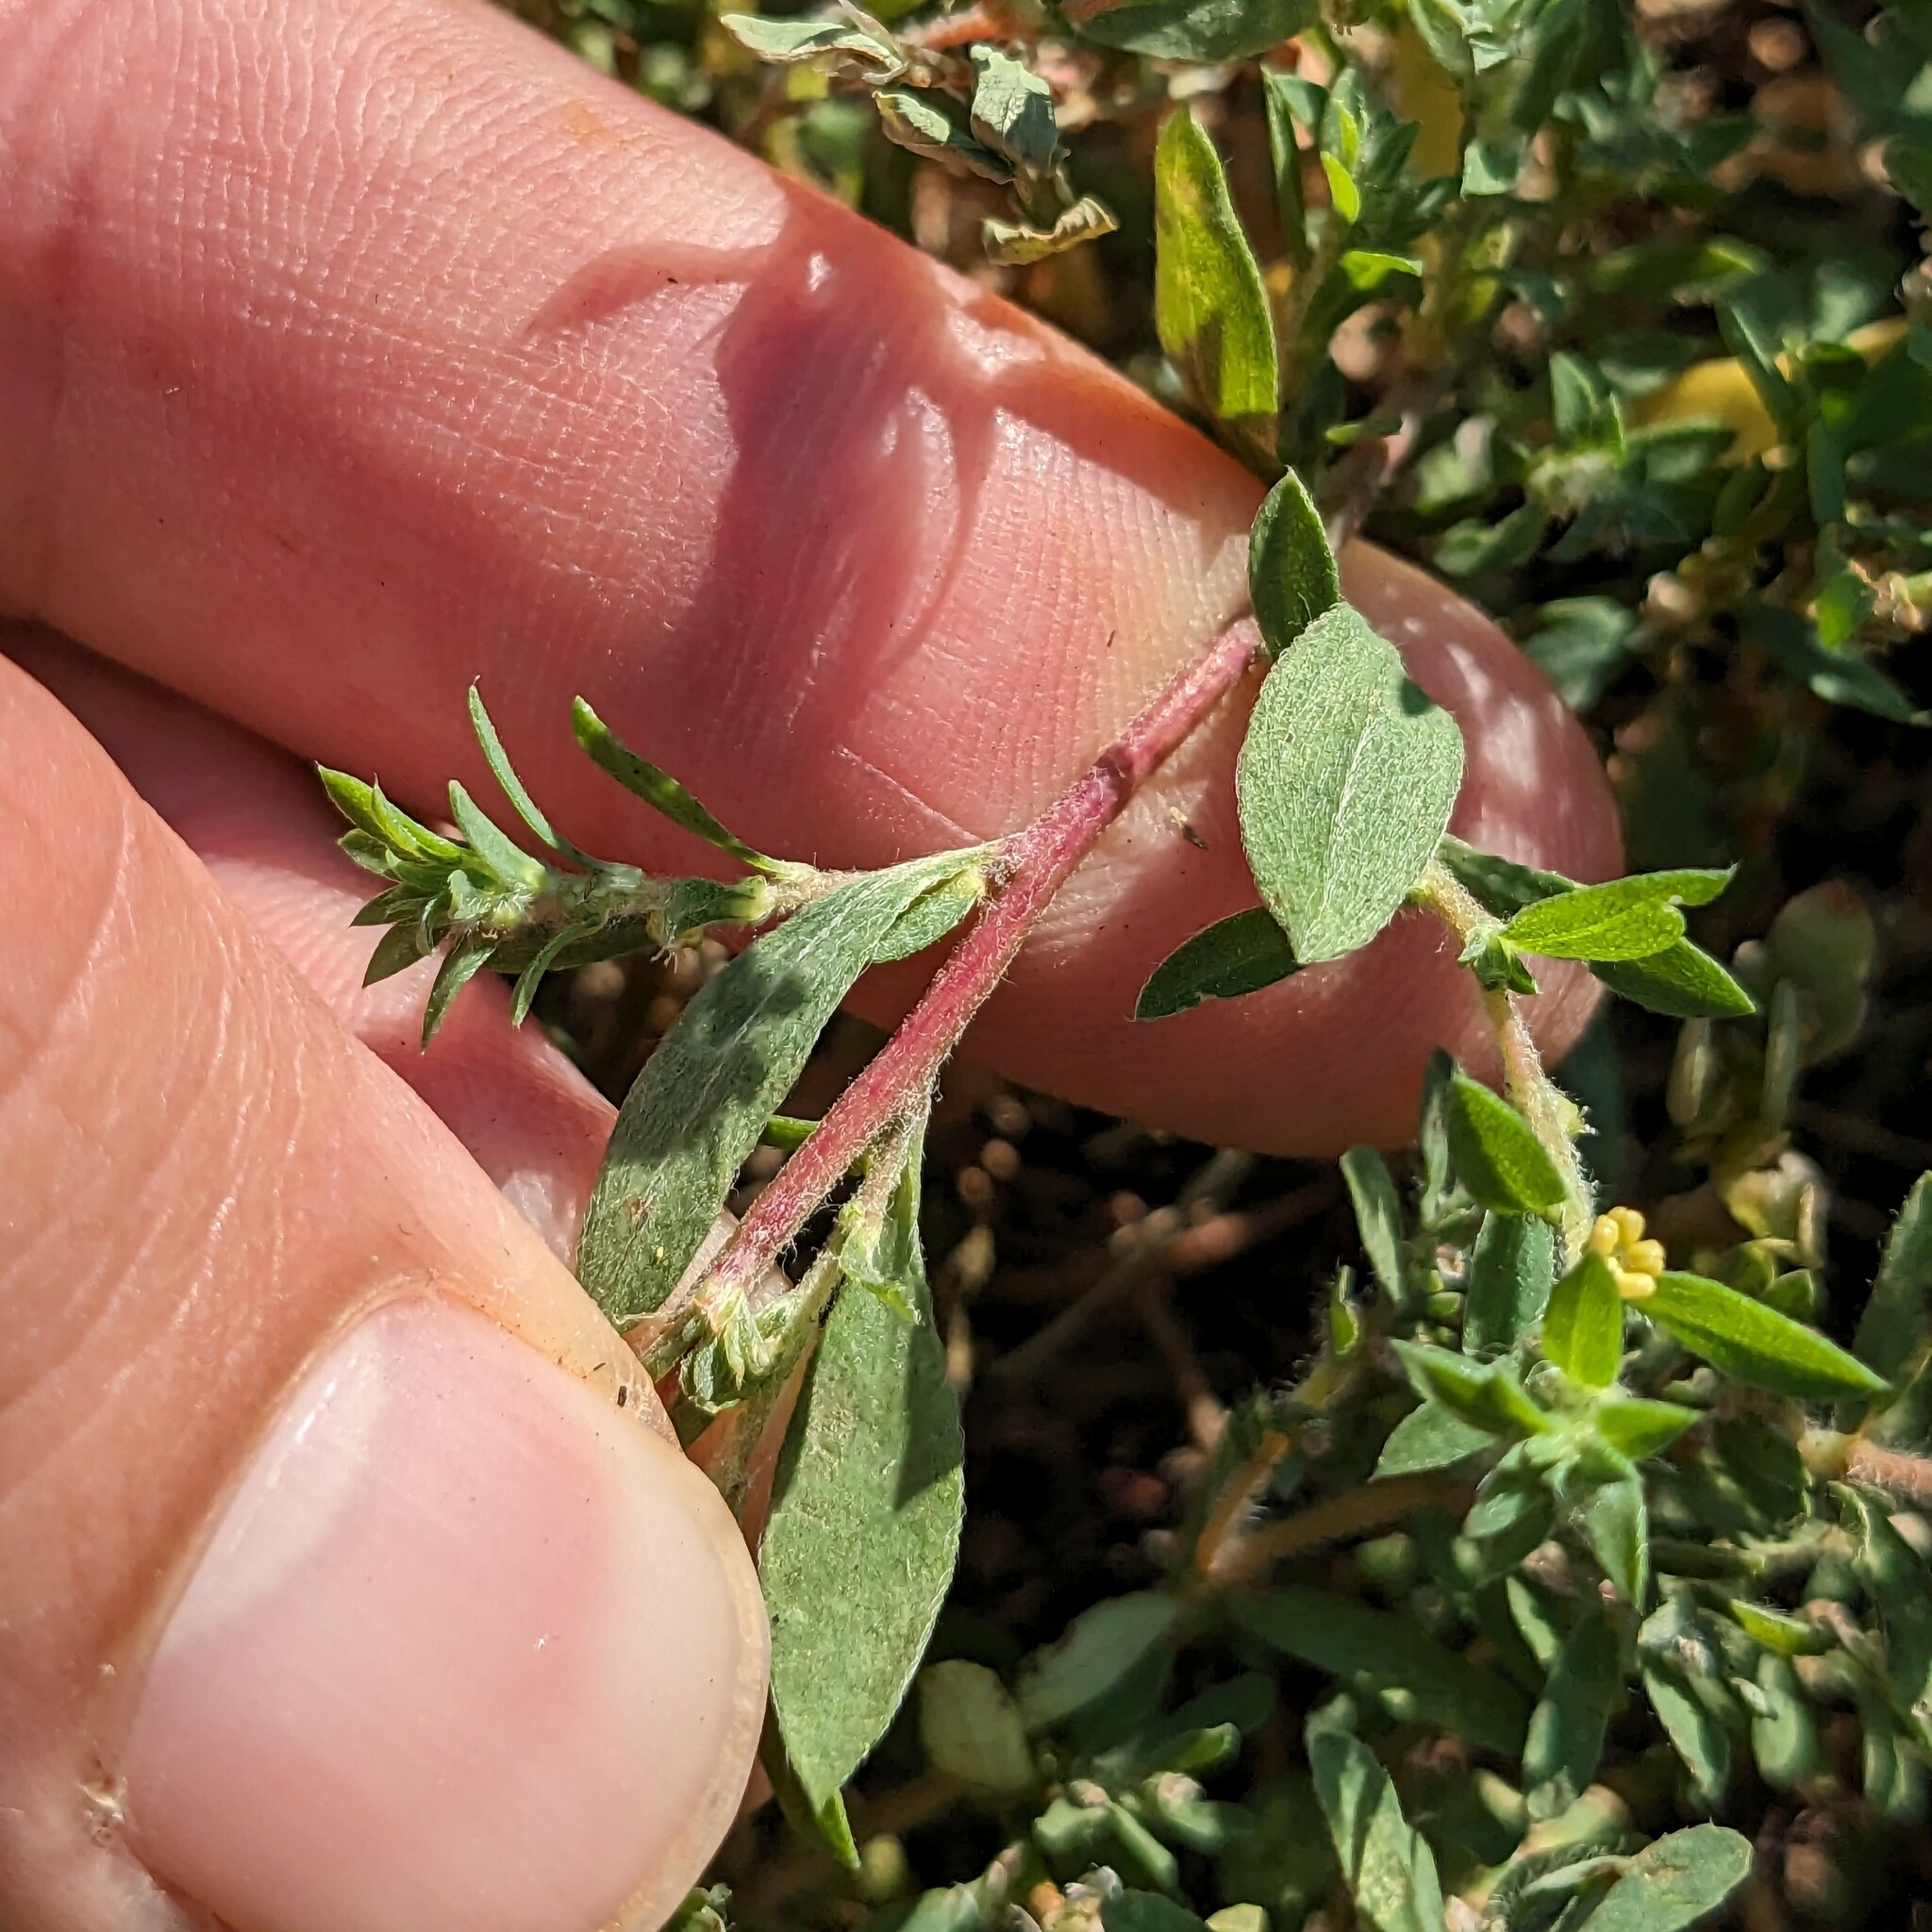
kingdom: Plantae
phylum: Tracheophyta
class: Magnoliopsida
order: Caryophyllales
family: Amaranthaceae
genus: Bassia
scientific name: Bassia scoparia
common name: Belvedere
